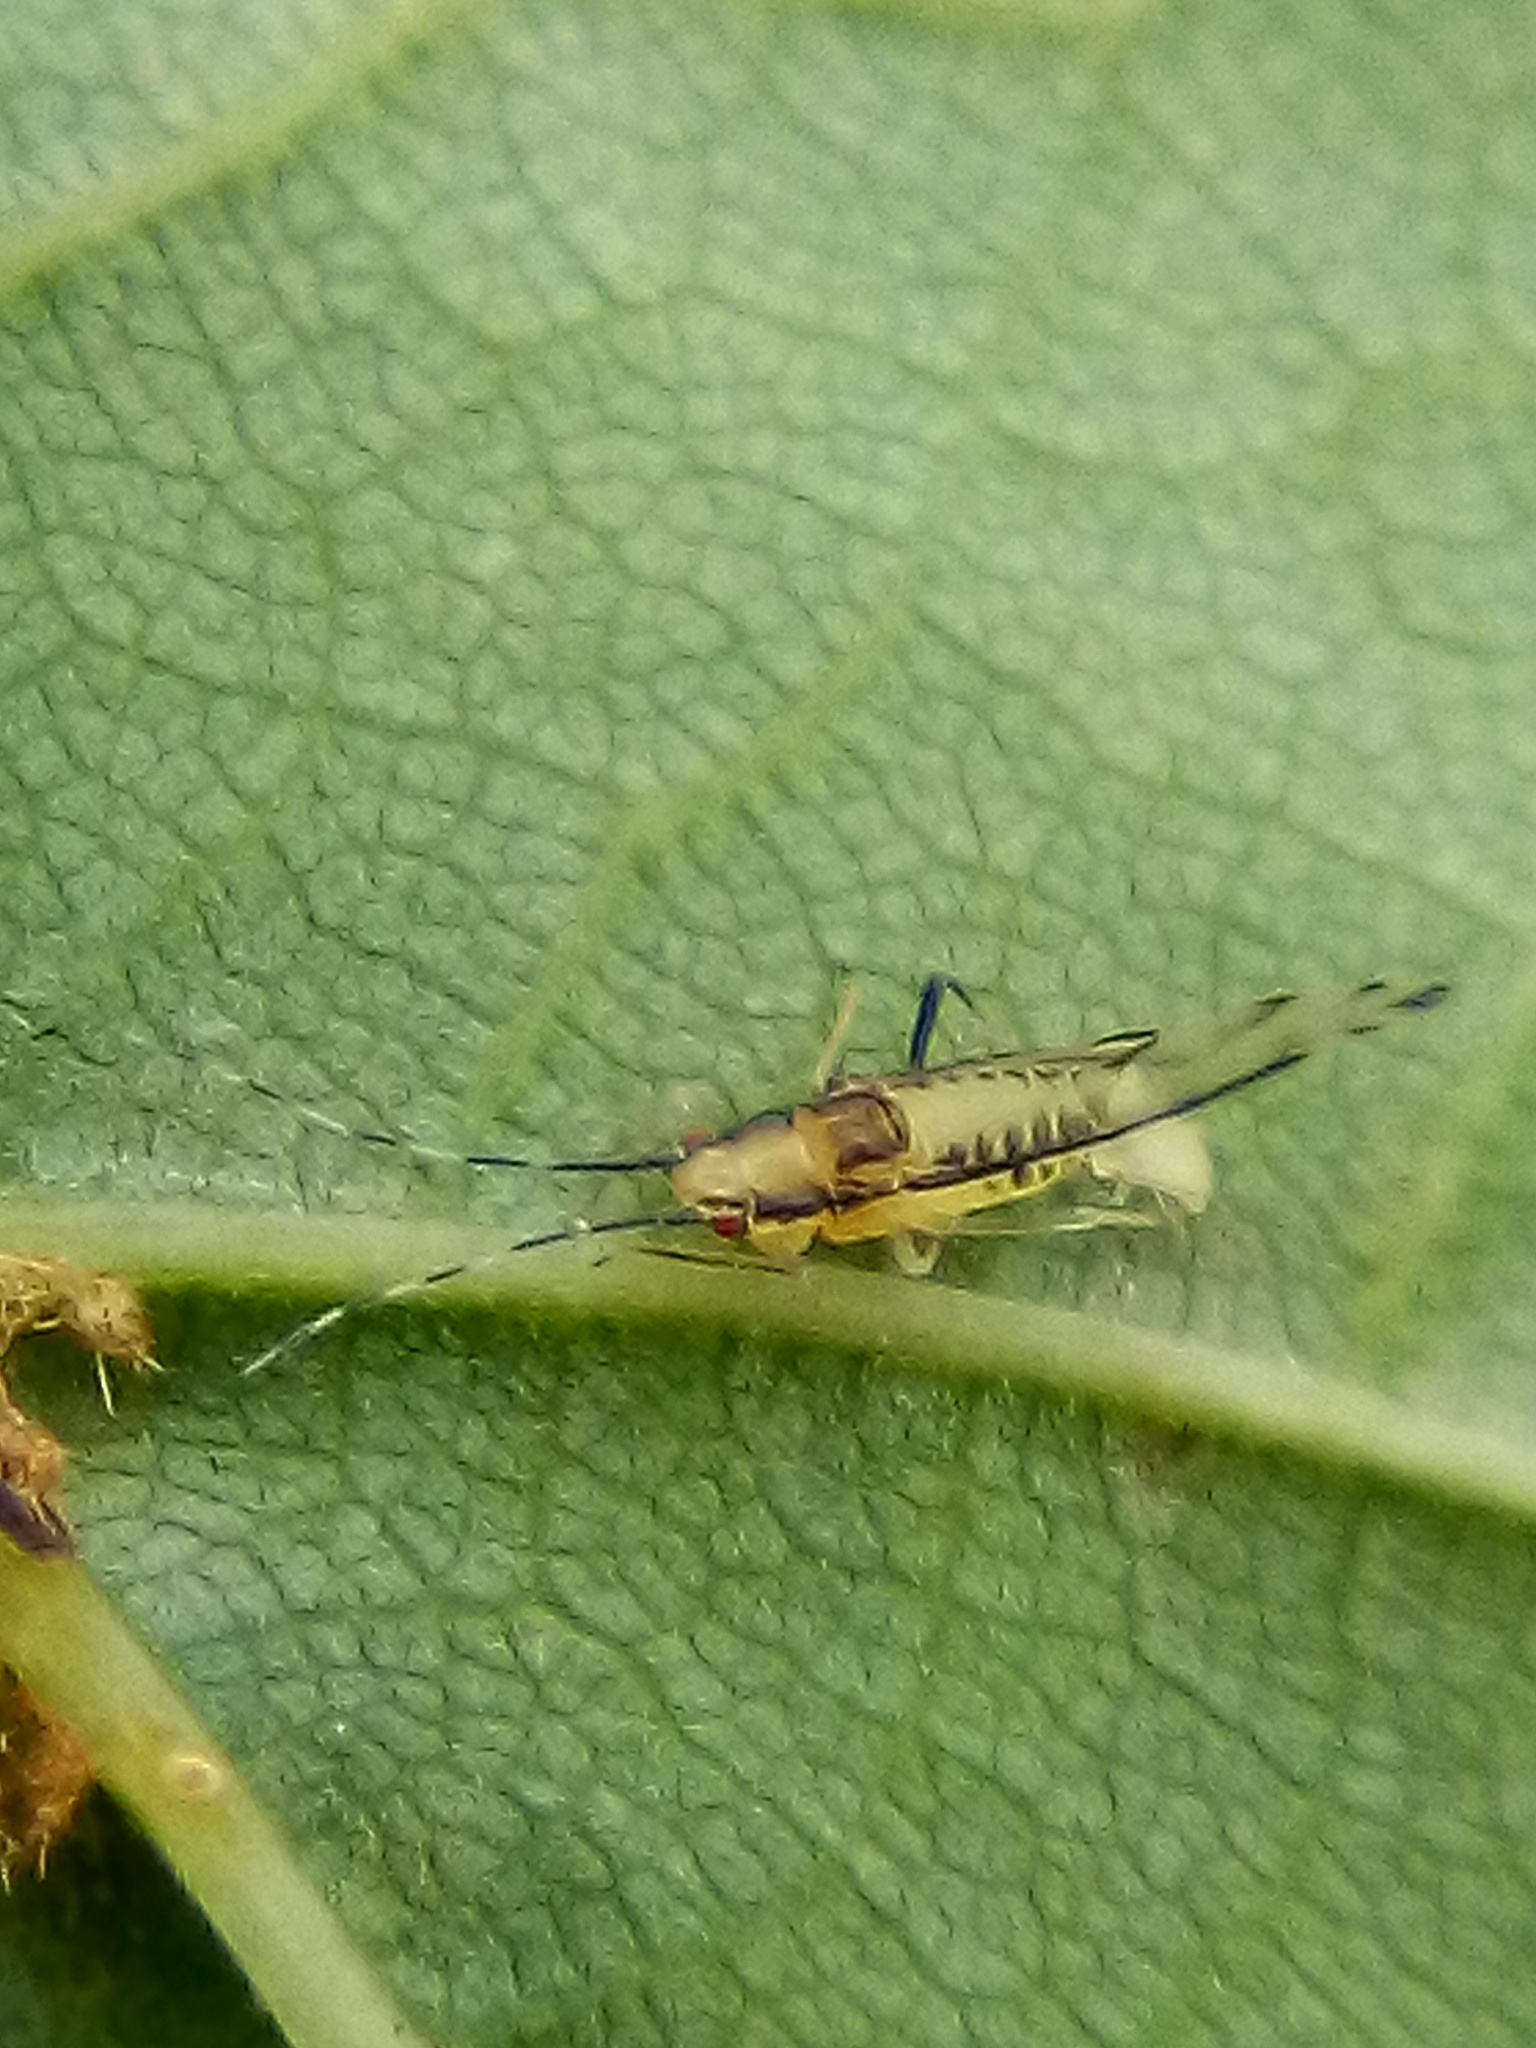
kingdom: Animalia
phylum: Arthropoda
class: Insecta
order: Hemiptera
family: Aphididae
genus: Eucallipterus
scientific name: Eucallipterus tiliae
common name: Aphid
